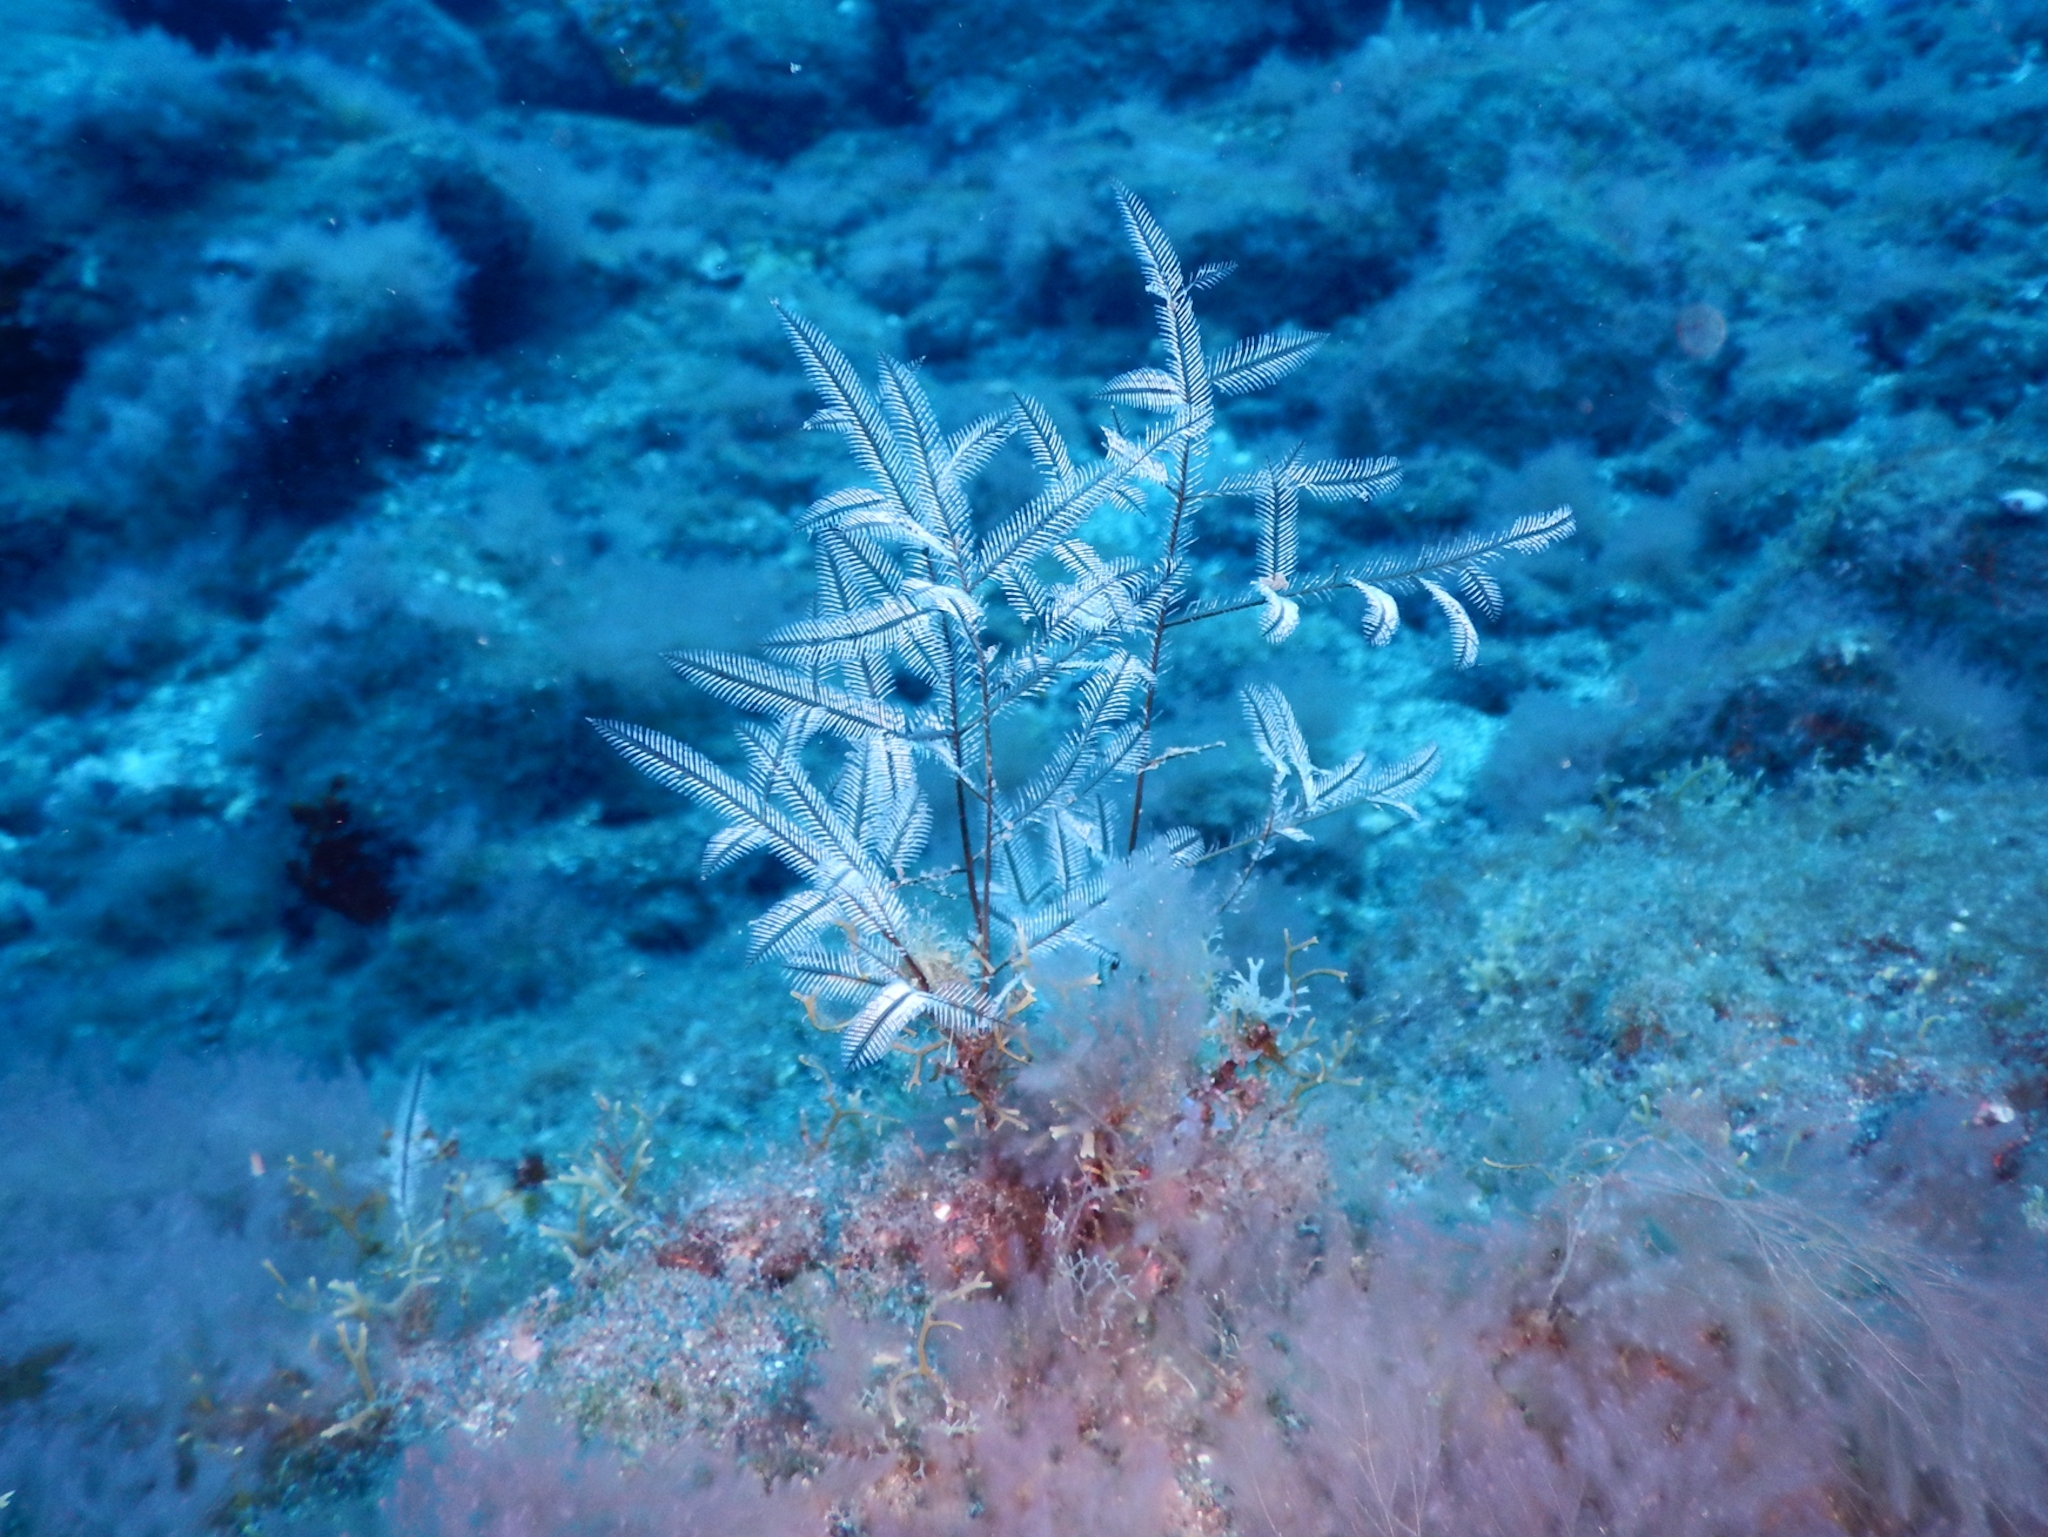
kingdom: Animalia
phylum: Cnidaria
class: Hydrozoa
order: Leptothecata
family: Aglaopheniidae
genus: Macrorhynchia
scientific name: Macrorhynchia philippina
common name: Stinging hydroid
